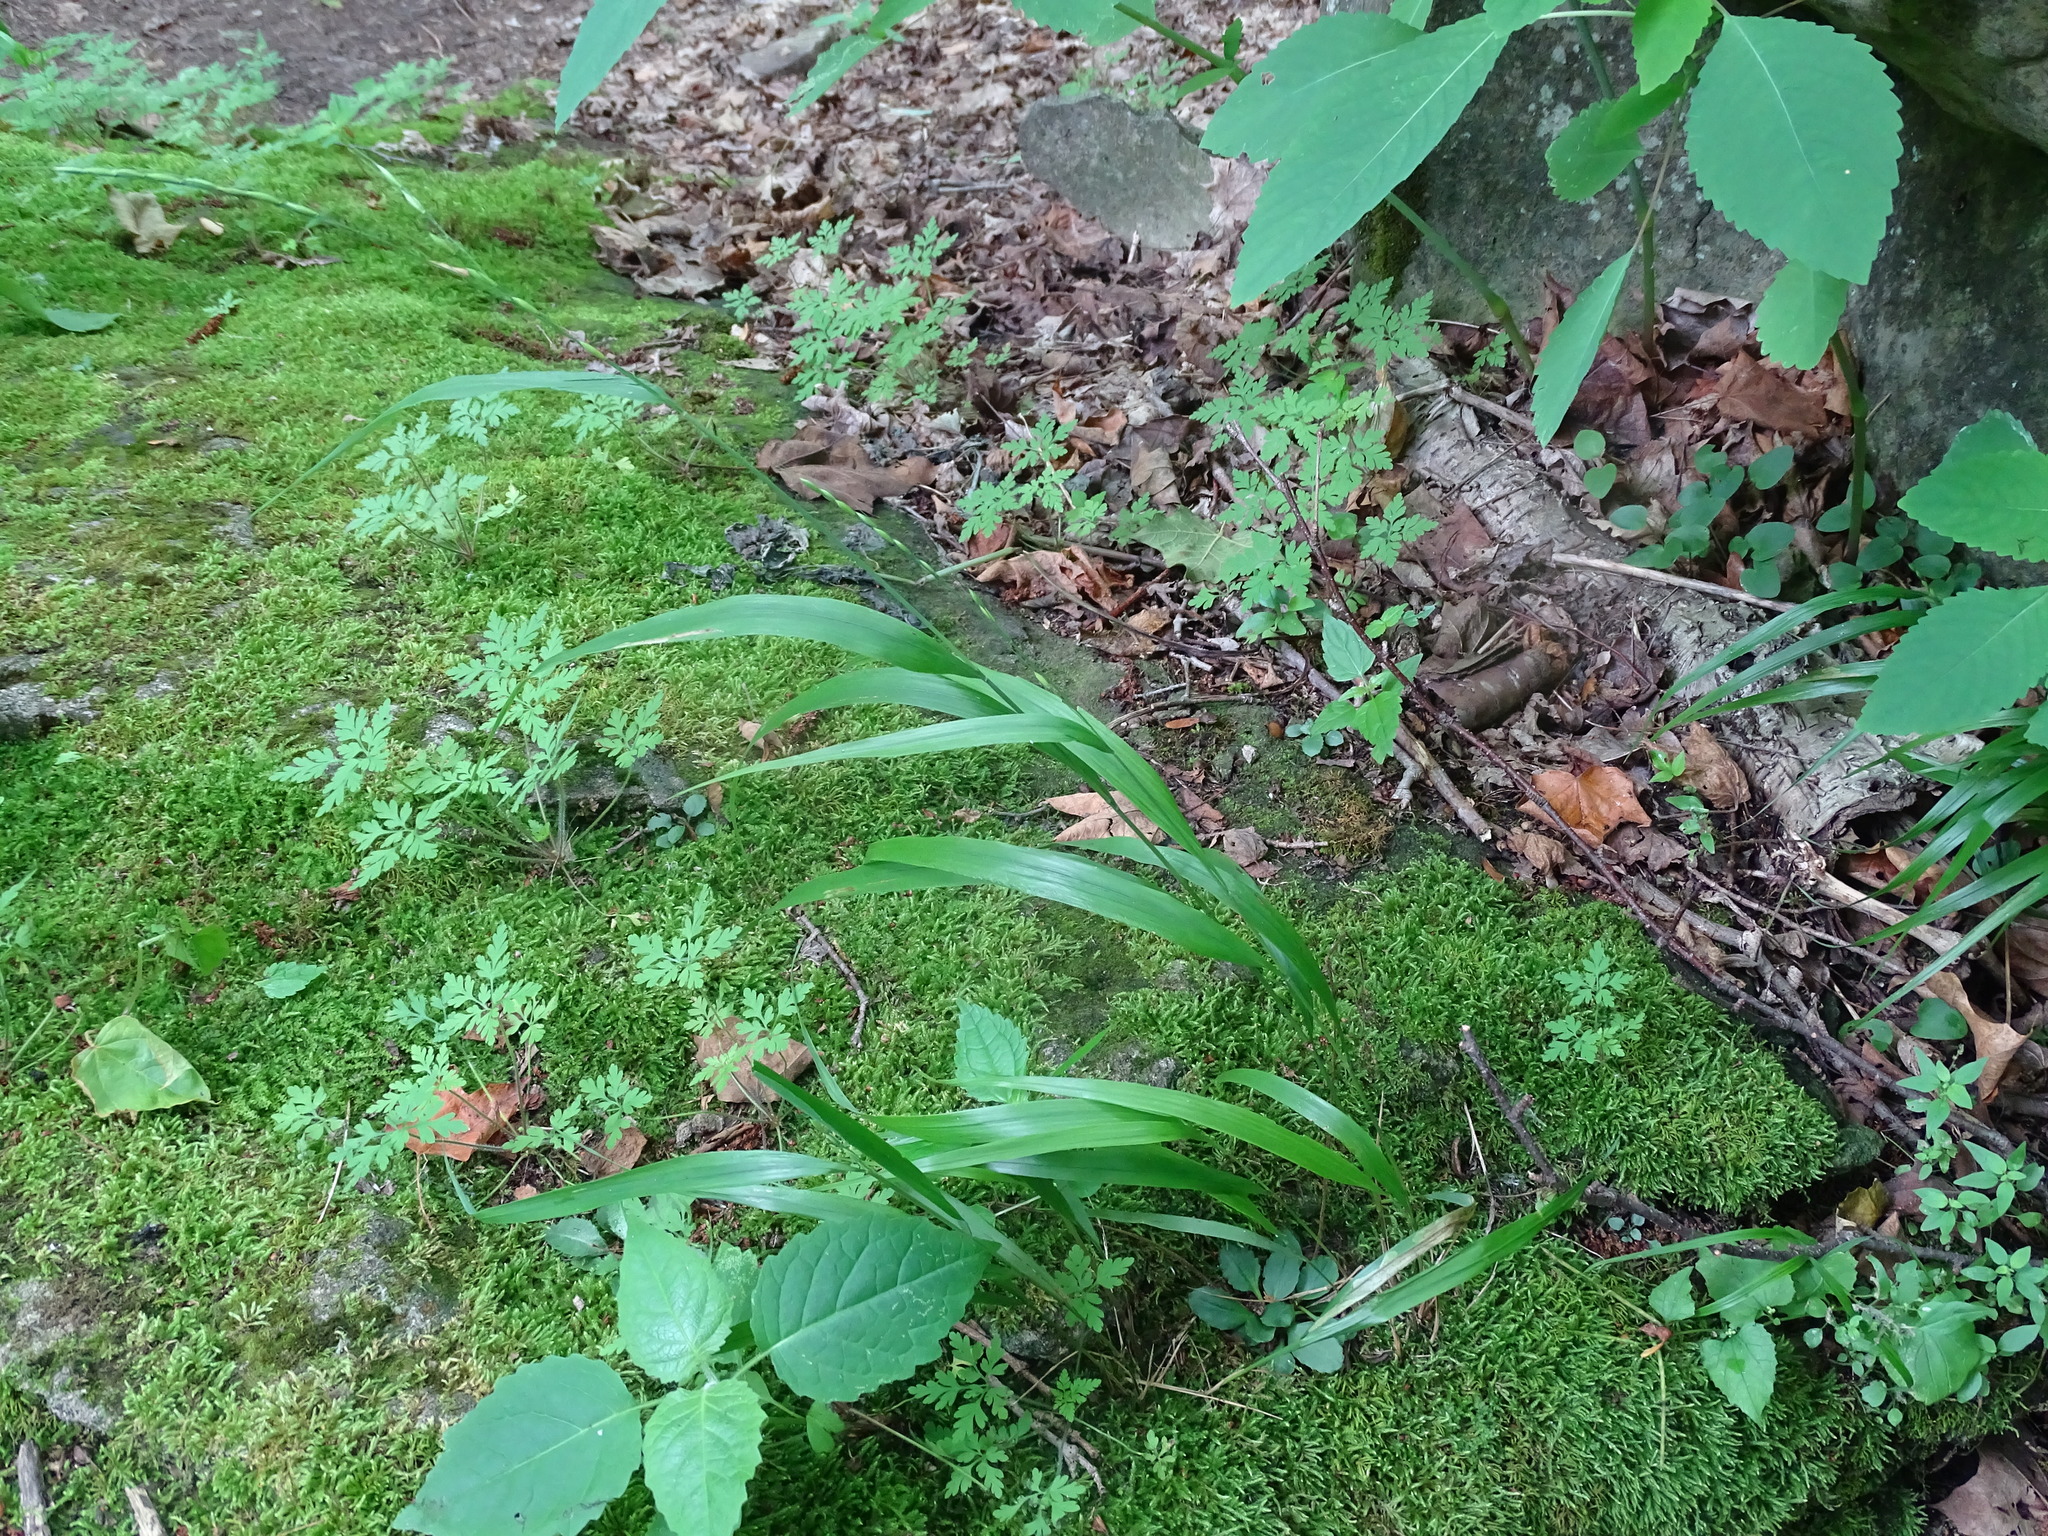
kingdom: Plantae
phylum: Tracheophyta
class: Liliopsida
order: Poales
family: Poaceae
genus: Patis
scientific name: Patis racemosa
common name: Black-fruited mountain rice
